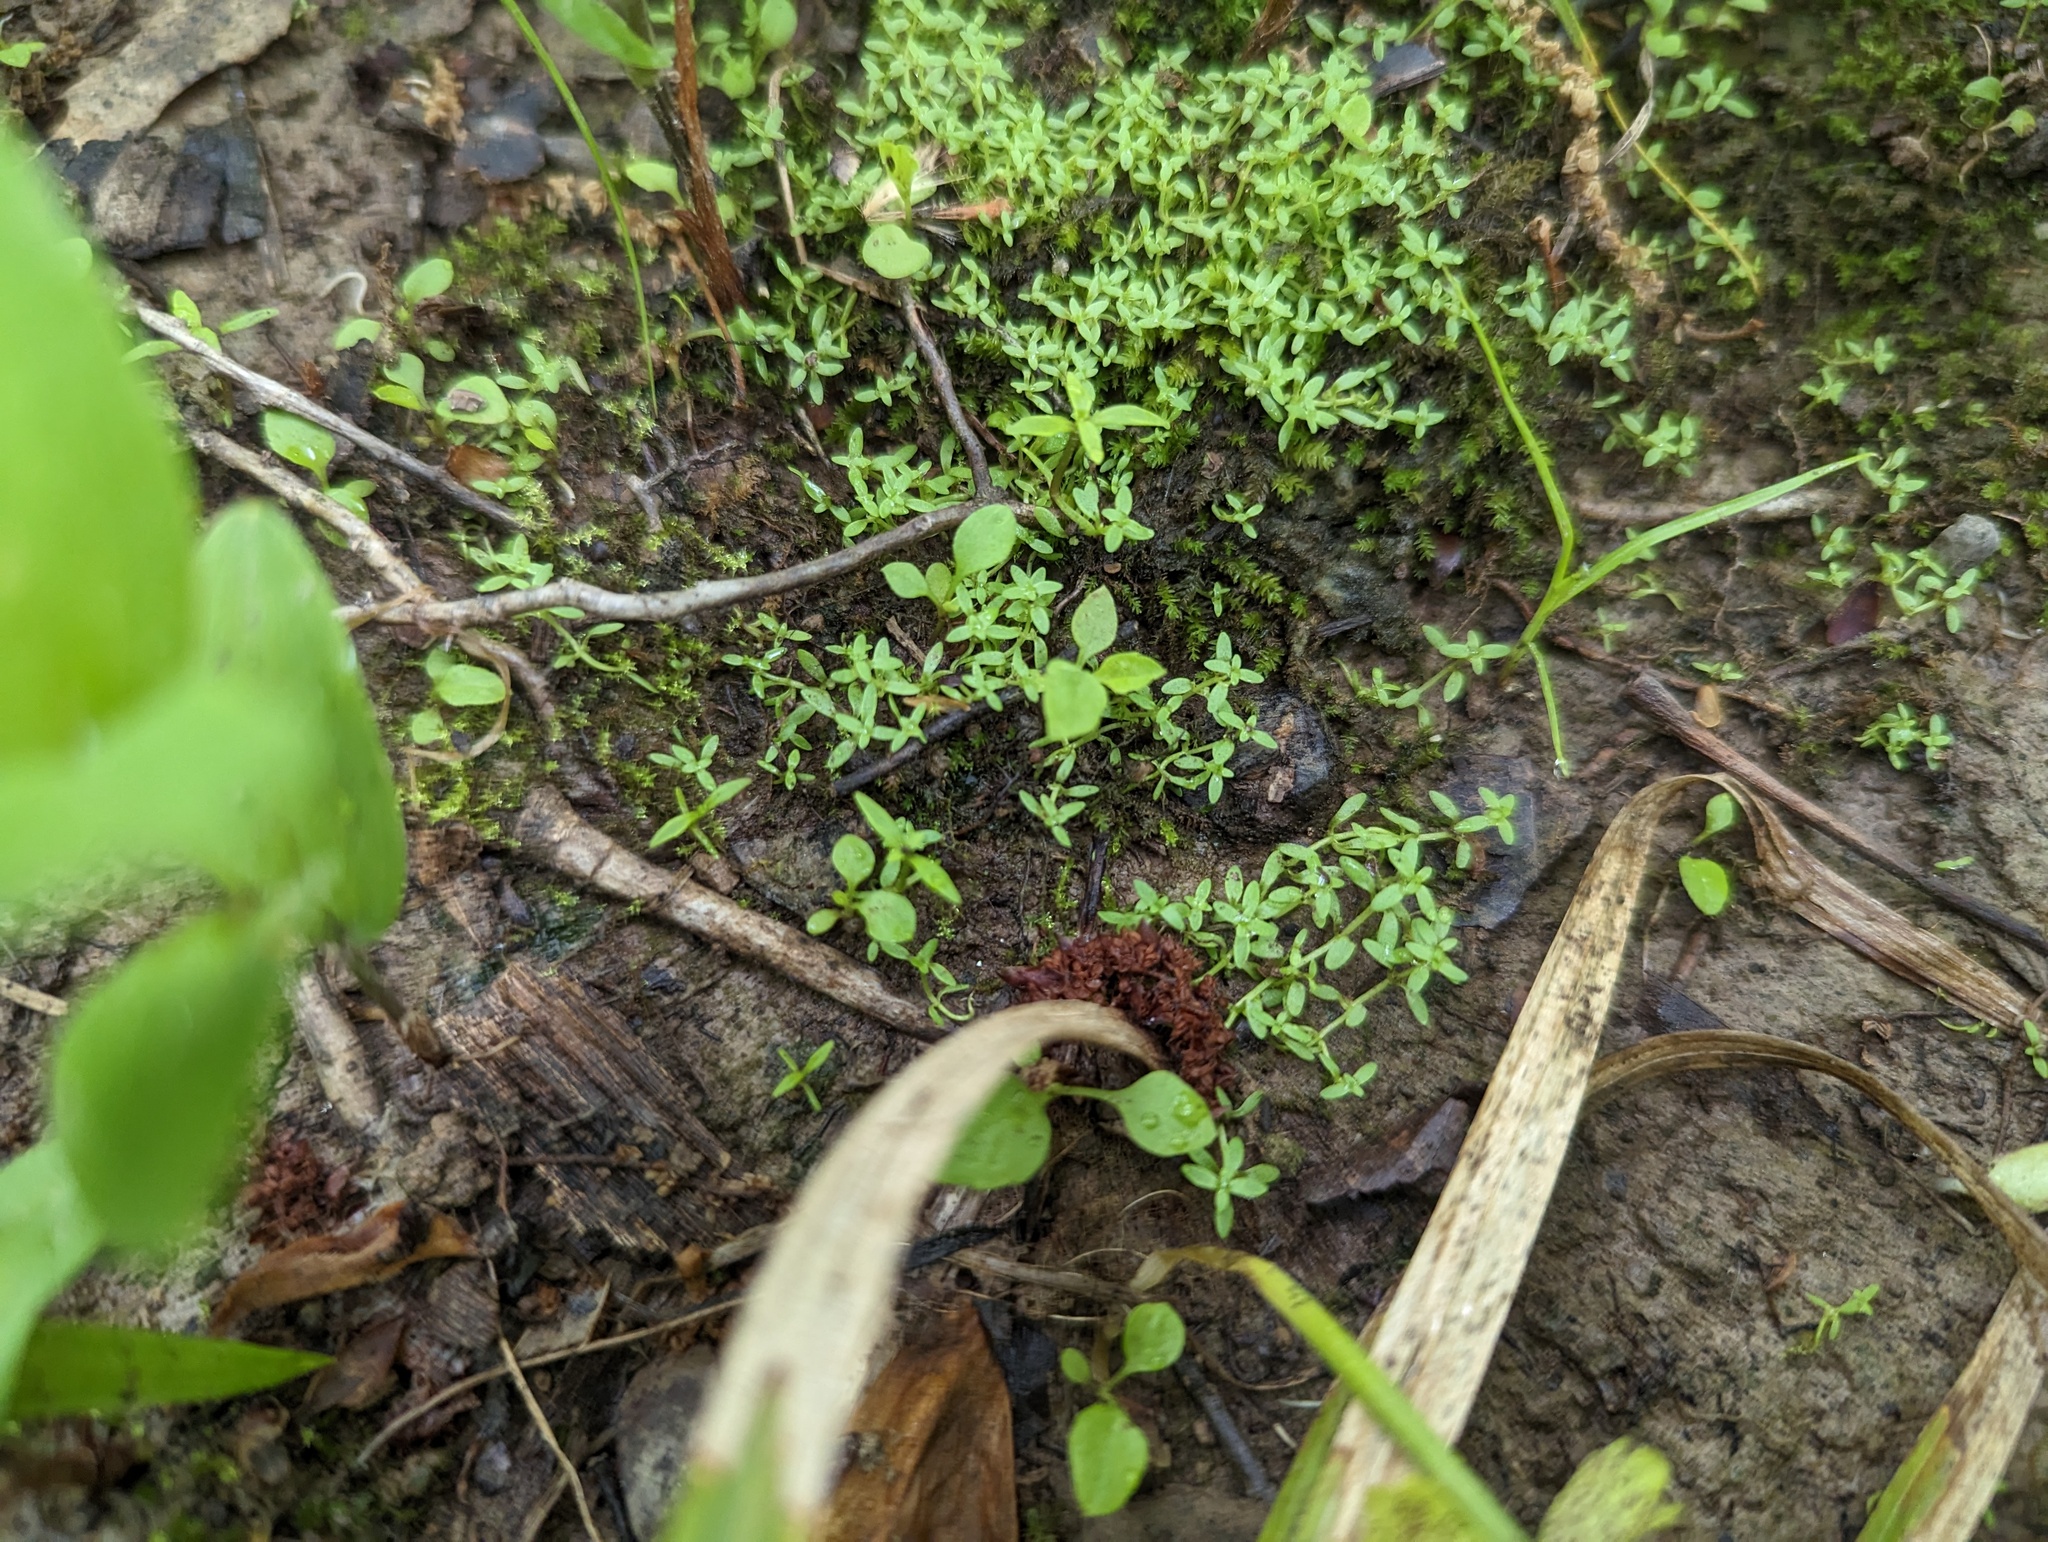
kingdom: Plantae
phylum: Tracheophyta
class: Magnoliopsida
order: Lamiales
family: Plantaginaceae
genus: Callitriche
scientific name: Callitriche terrestris
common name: Terrestrial water-starwort
